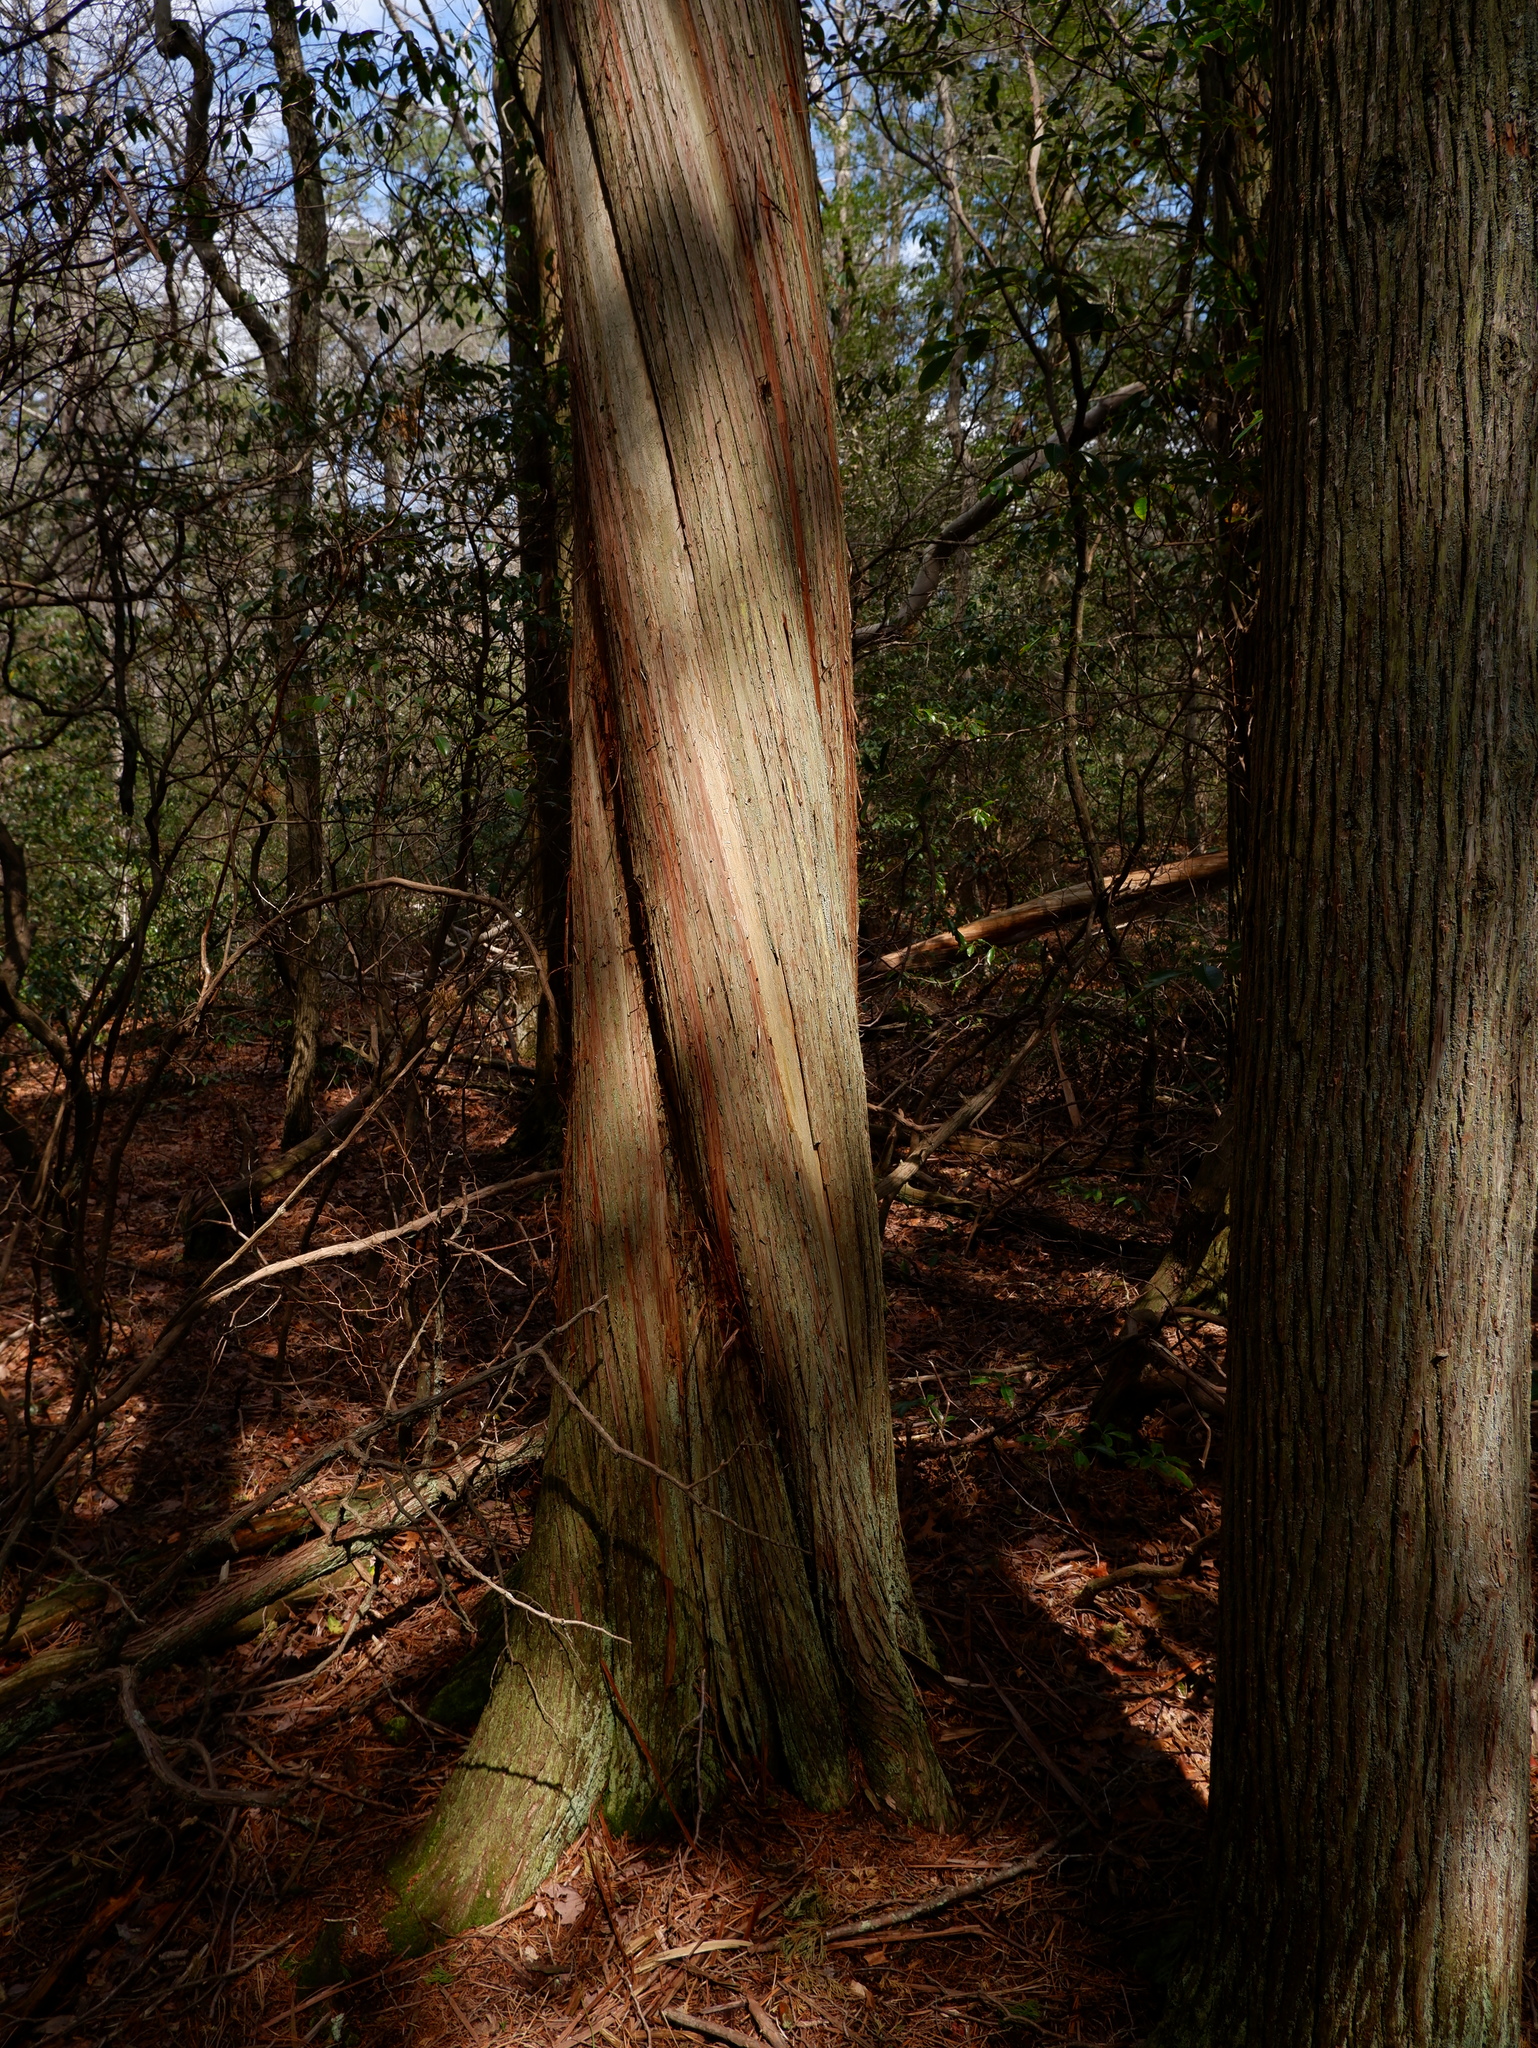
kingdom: Plantae
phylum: Tracheophyta
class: Pinopsida
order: Pinales
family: Cupressaceae
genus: Chamaecyparis
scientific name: Chamaecyparis thyoides
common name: Atlantic white cedar
